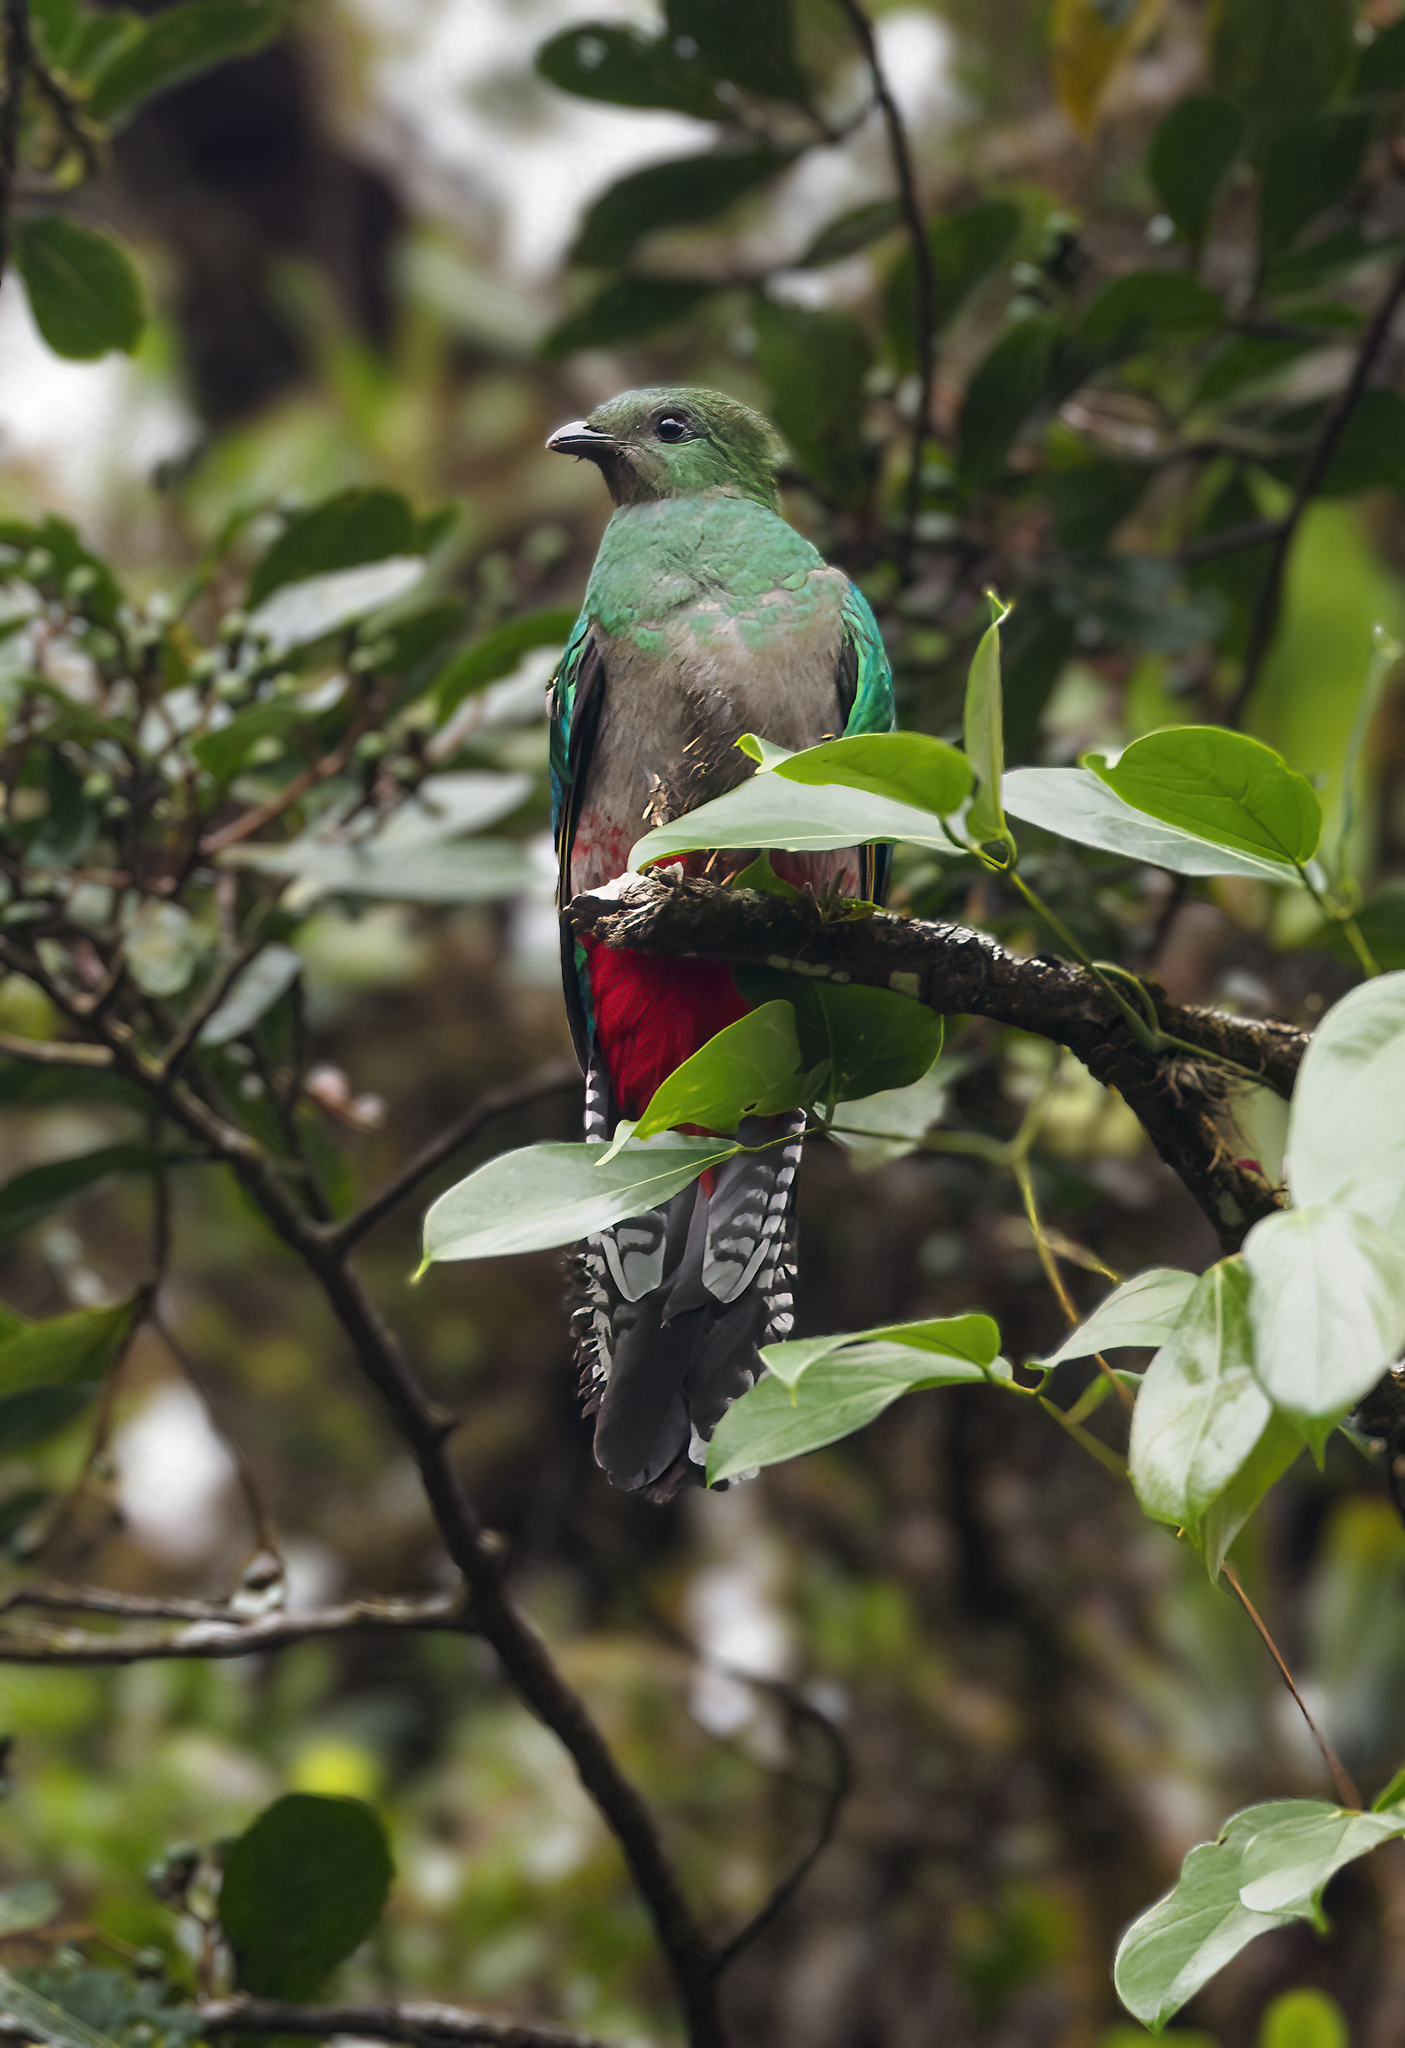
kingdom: Animalia
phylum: Chordata
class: Aves
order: Trogoniformes
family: Trogonidae
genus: Pharomachrus
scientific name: Pharomachrus mocinno
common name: Resplendent quetzal
